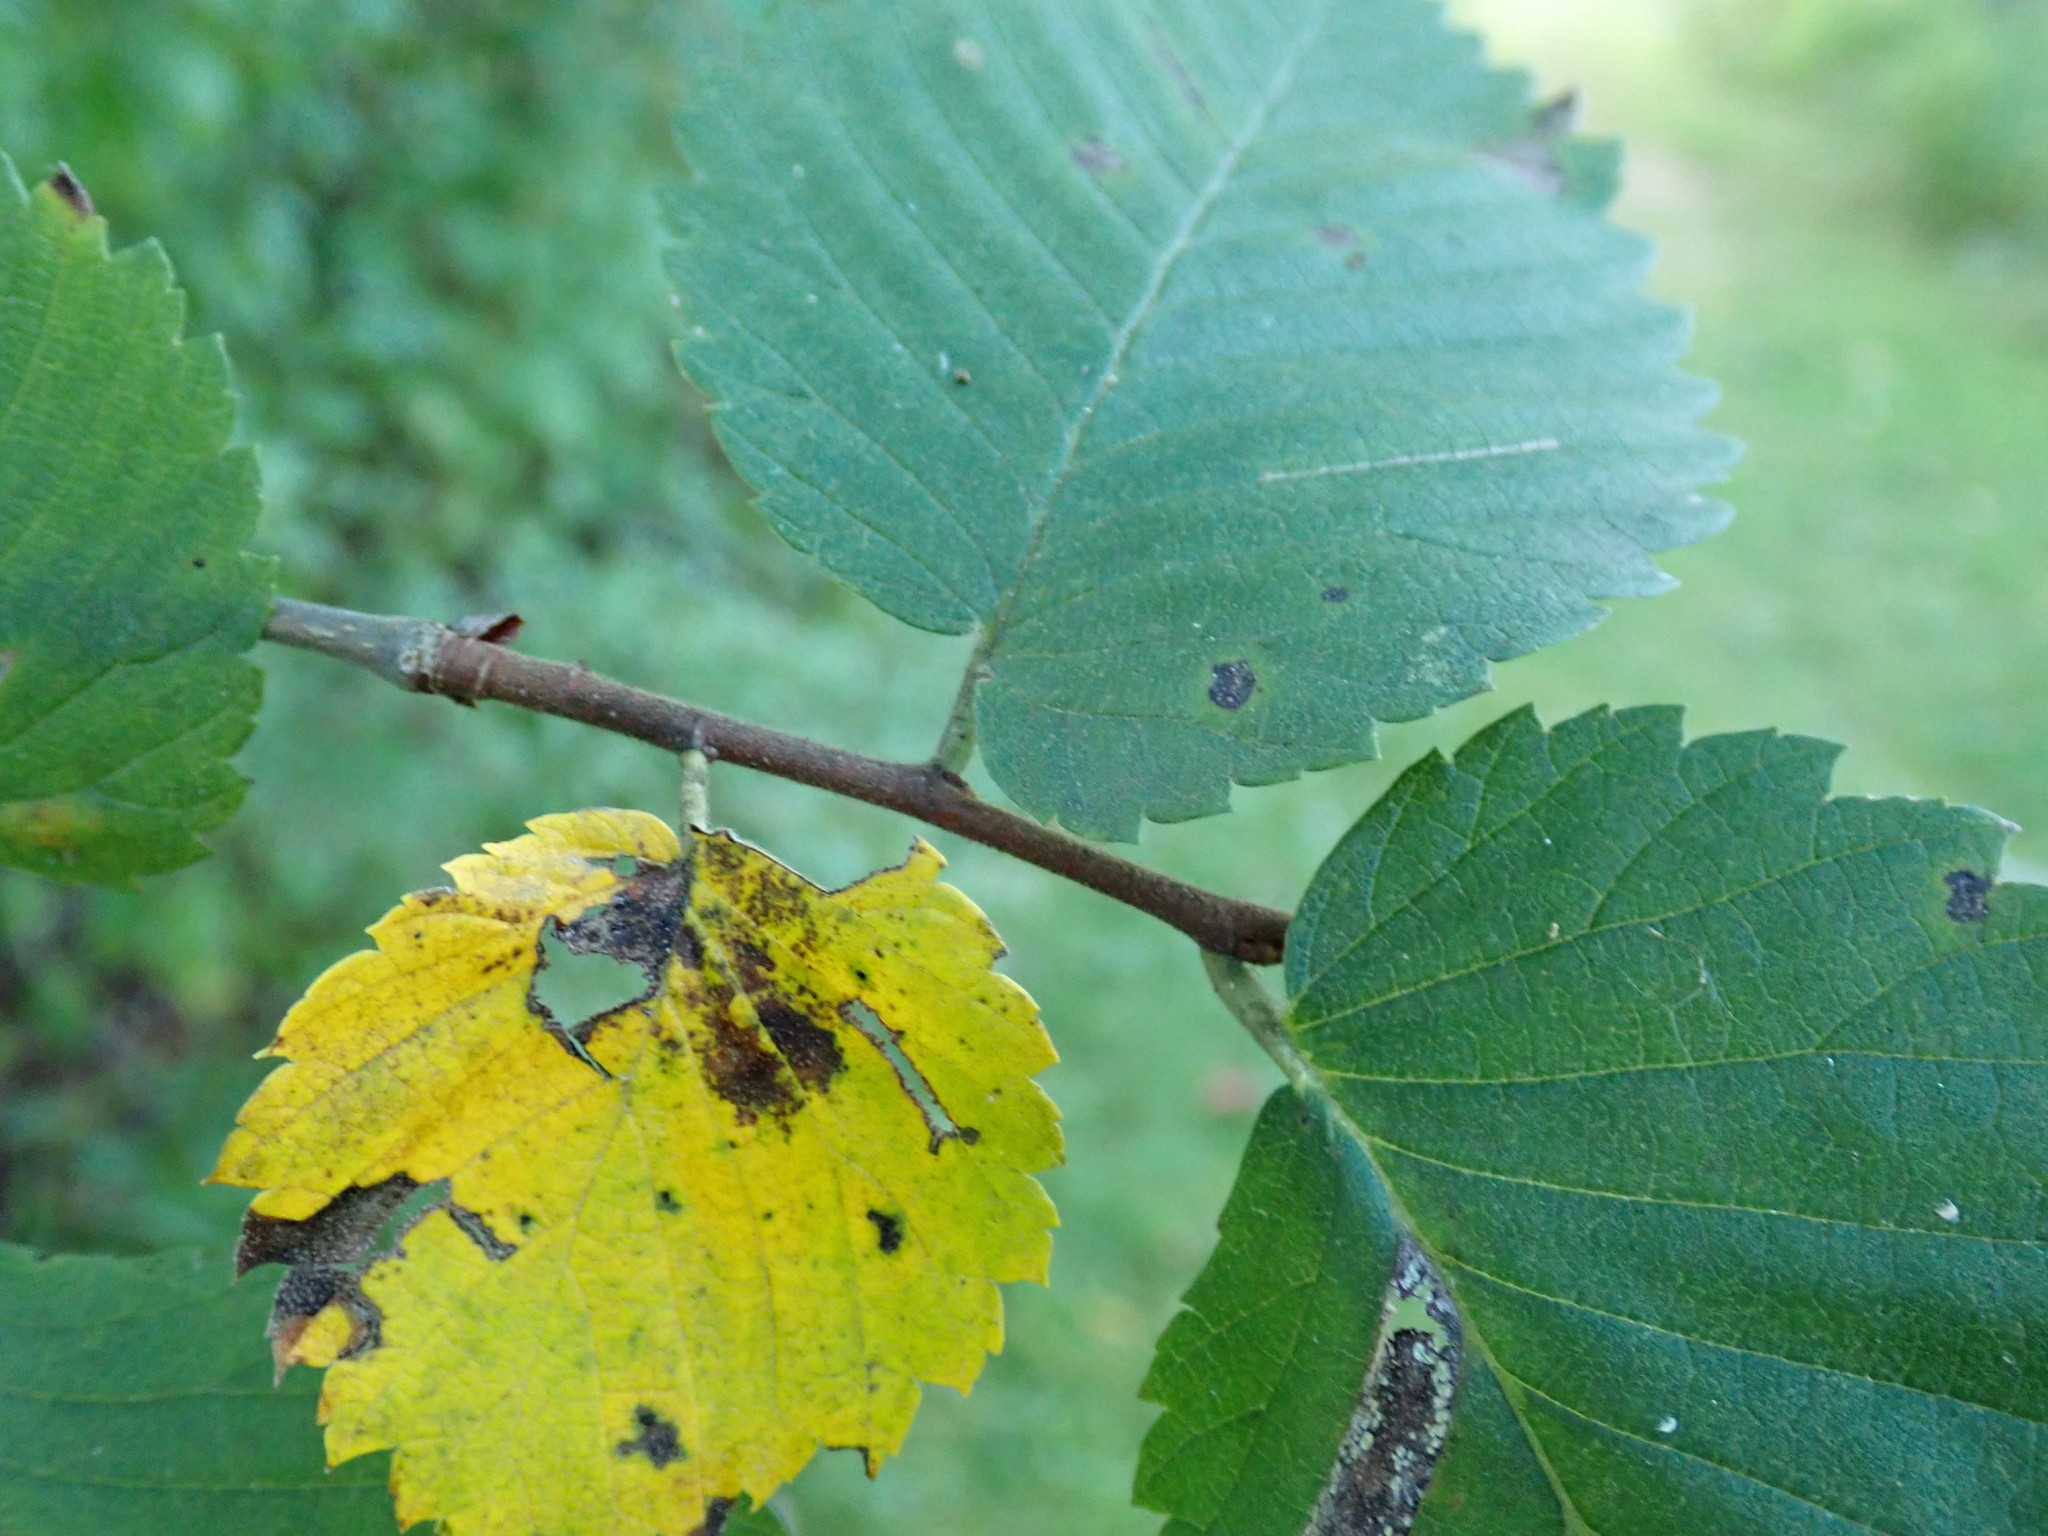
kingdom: Plantae
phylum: Tracheophyta
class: Magnoliopsida
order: Rosales
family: Ulmaceae
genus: Ulmus
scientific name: Ulmus
